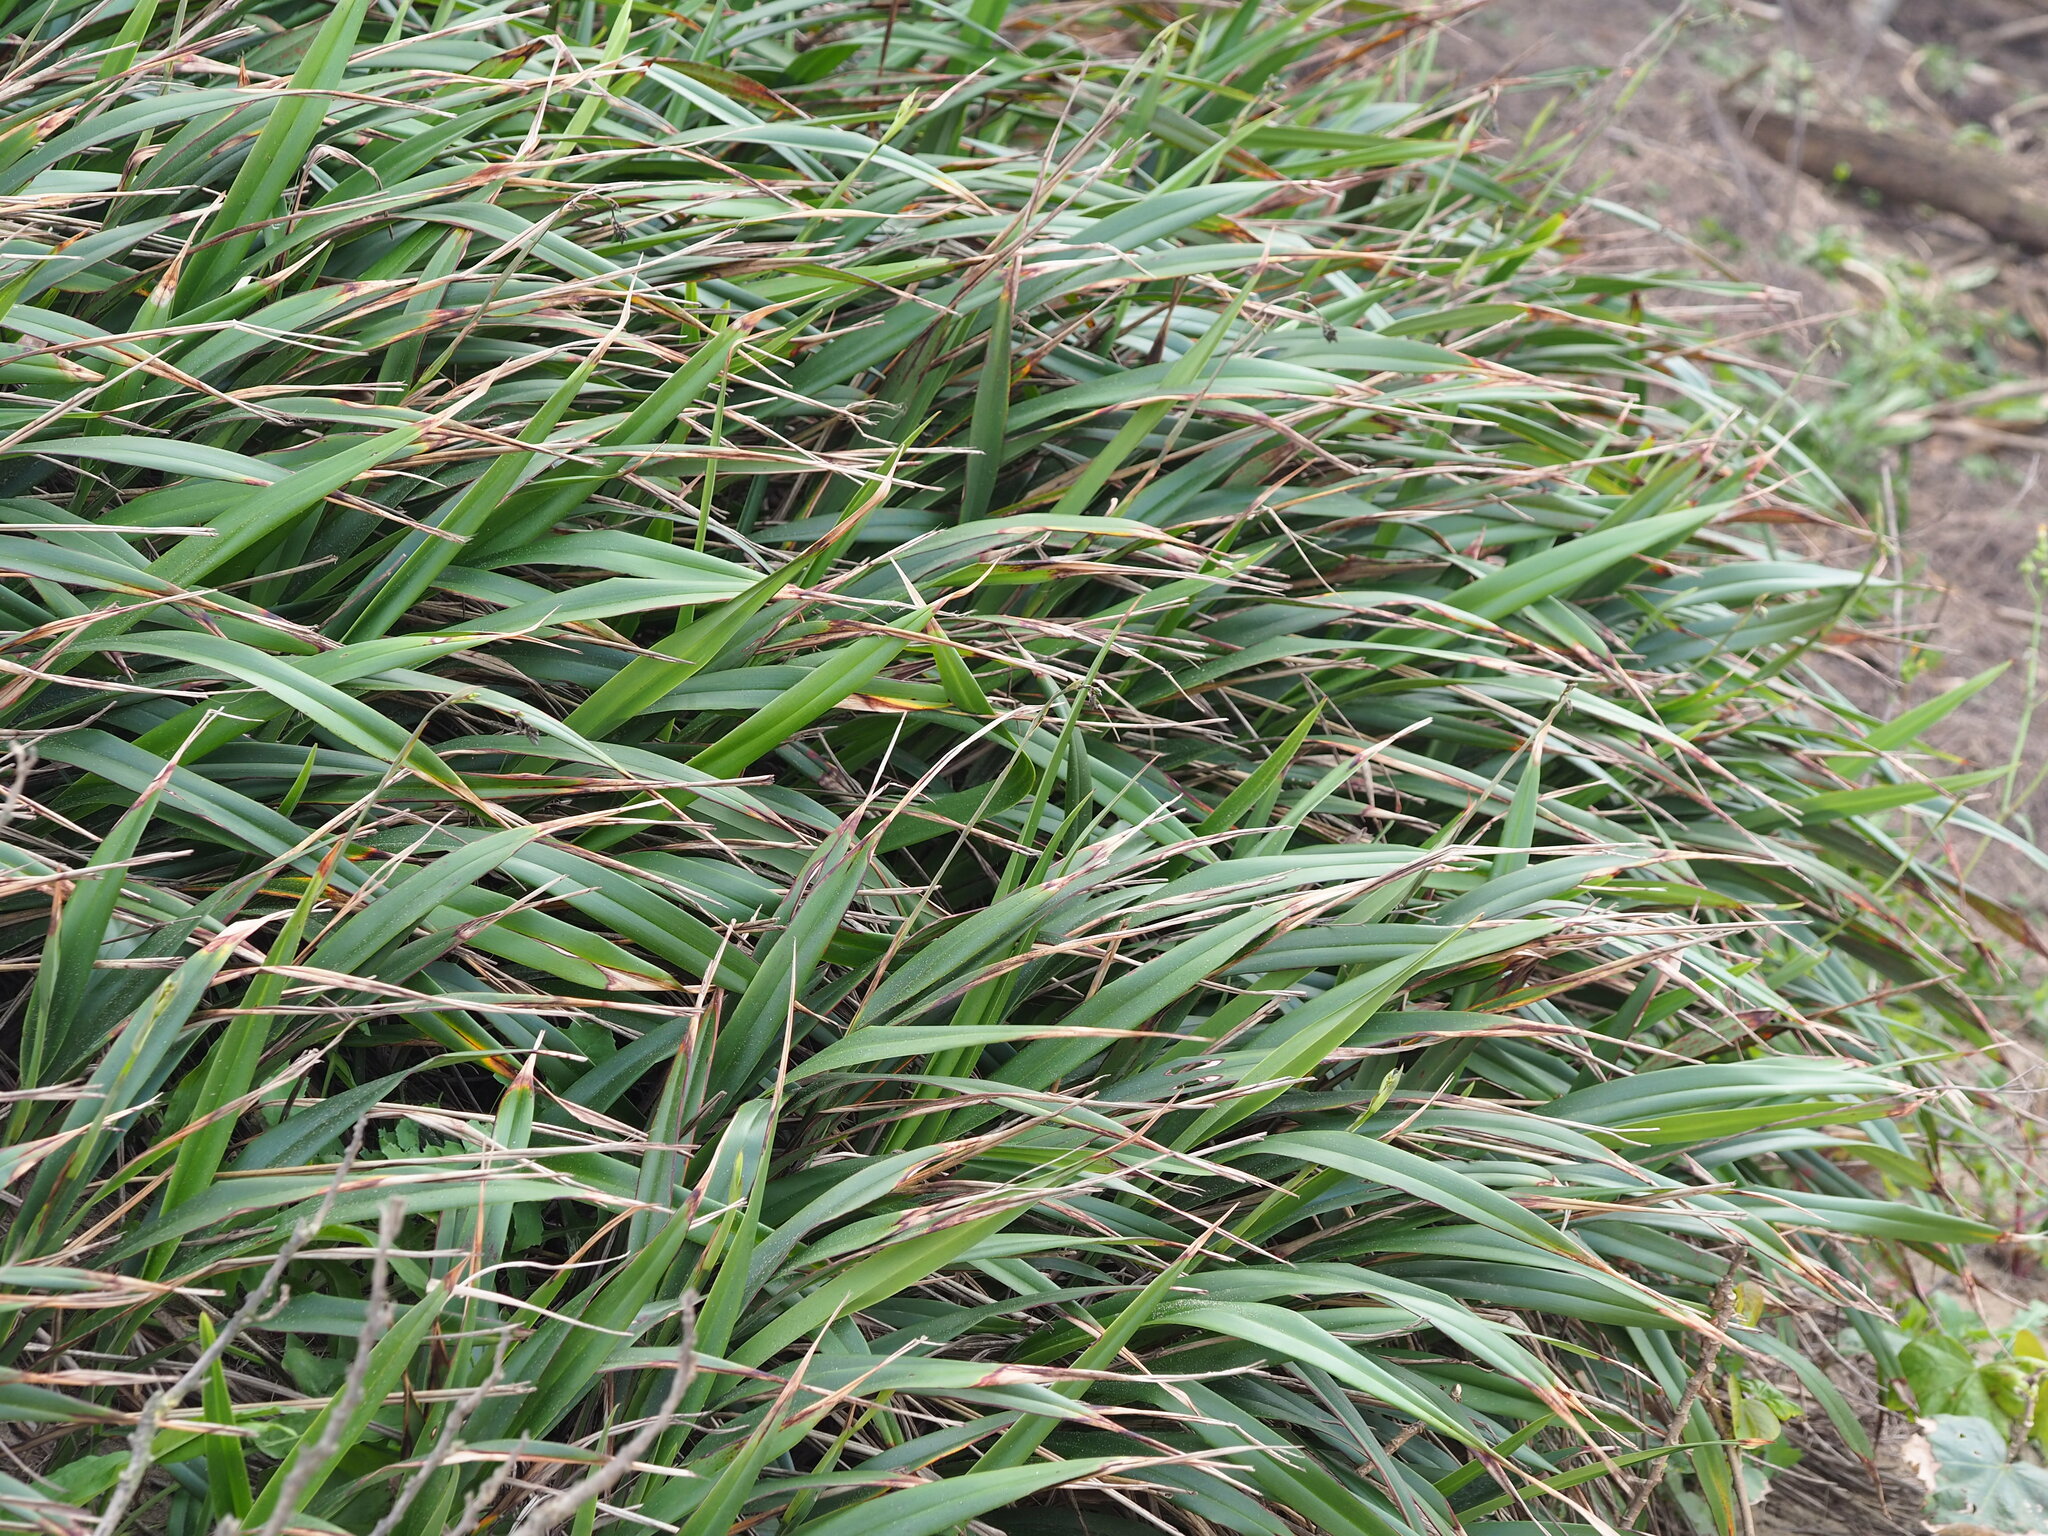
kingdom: Plantae
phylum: Tracheophyta
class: Liliopsida
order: Asparagales
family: Asphodelaceae
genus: Dianella
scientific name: Dianella ensifolia
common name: New zealand lilyplant
